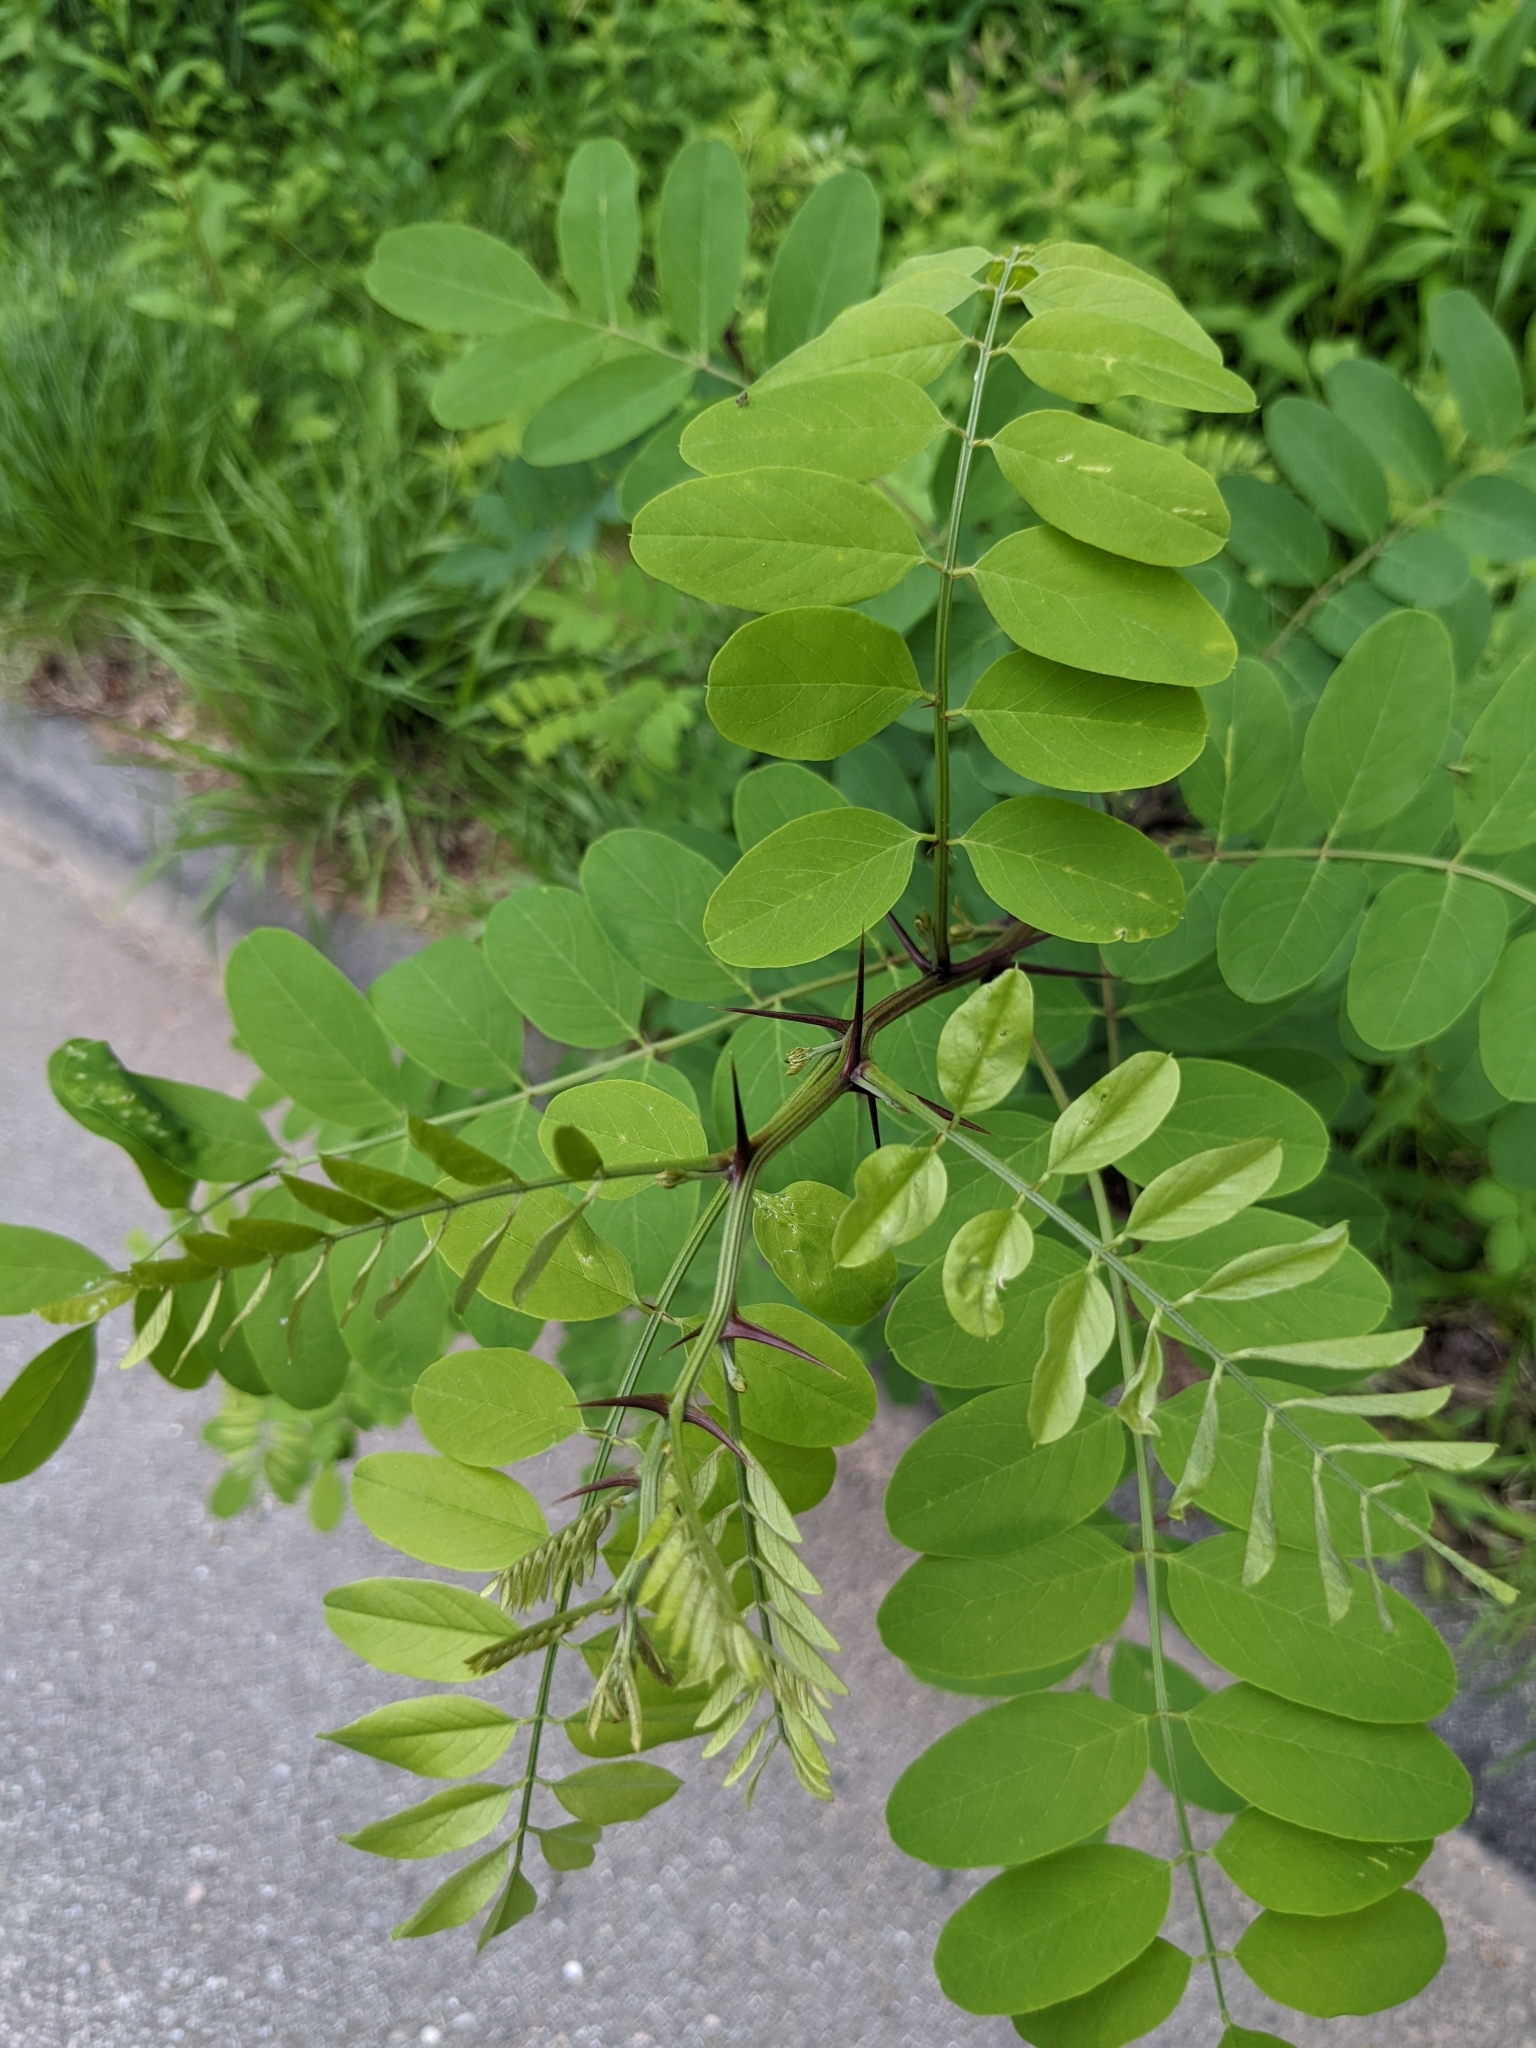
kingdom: Plantae
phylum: Tracheophyta
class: Magnoliopsida
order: Fabales
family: Fabaceae
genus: Robinia
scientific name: Robinia pseudoacacia
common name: Black locust
